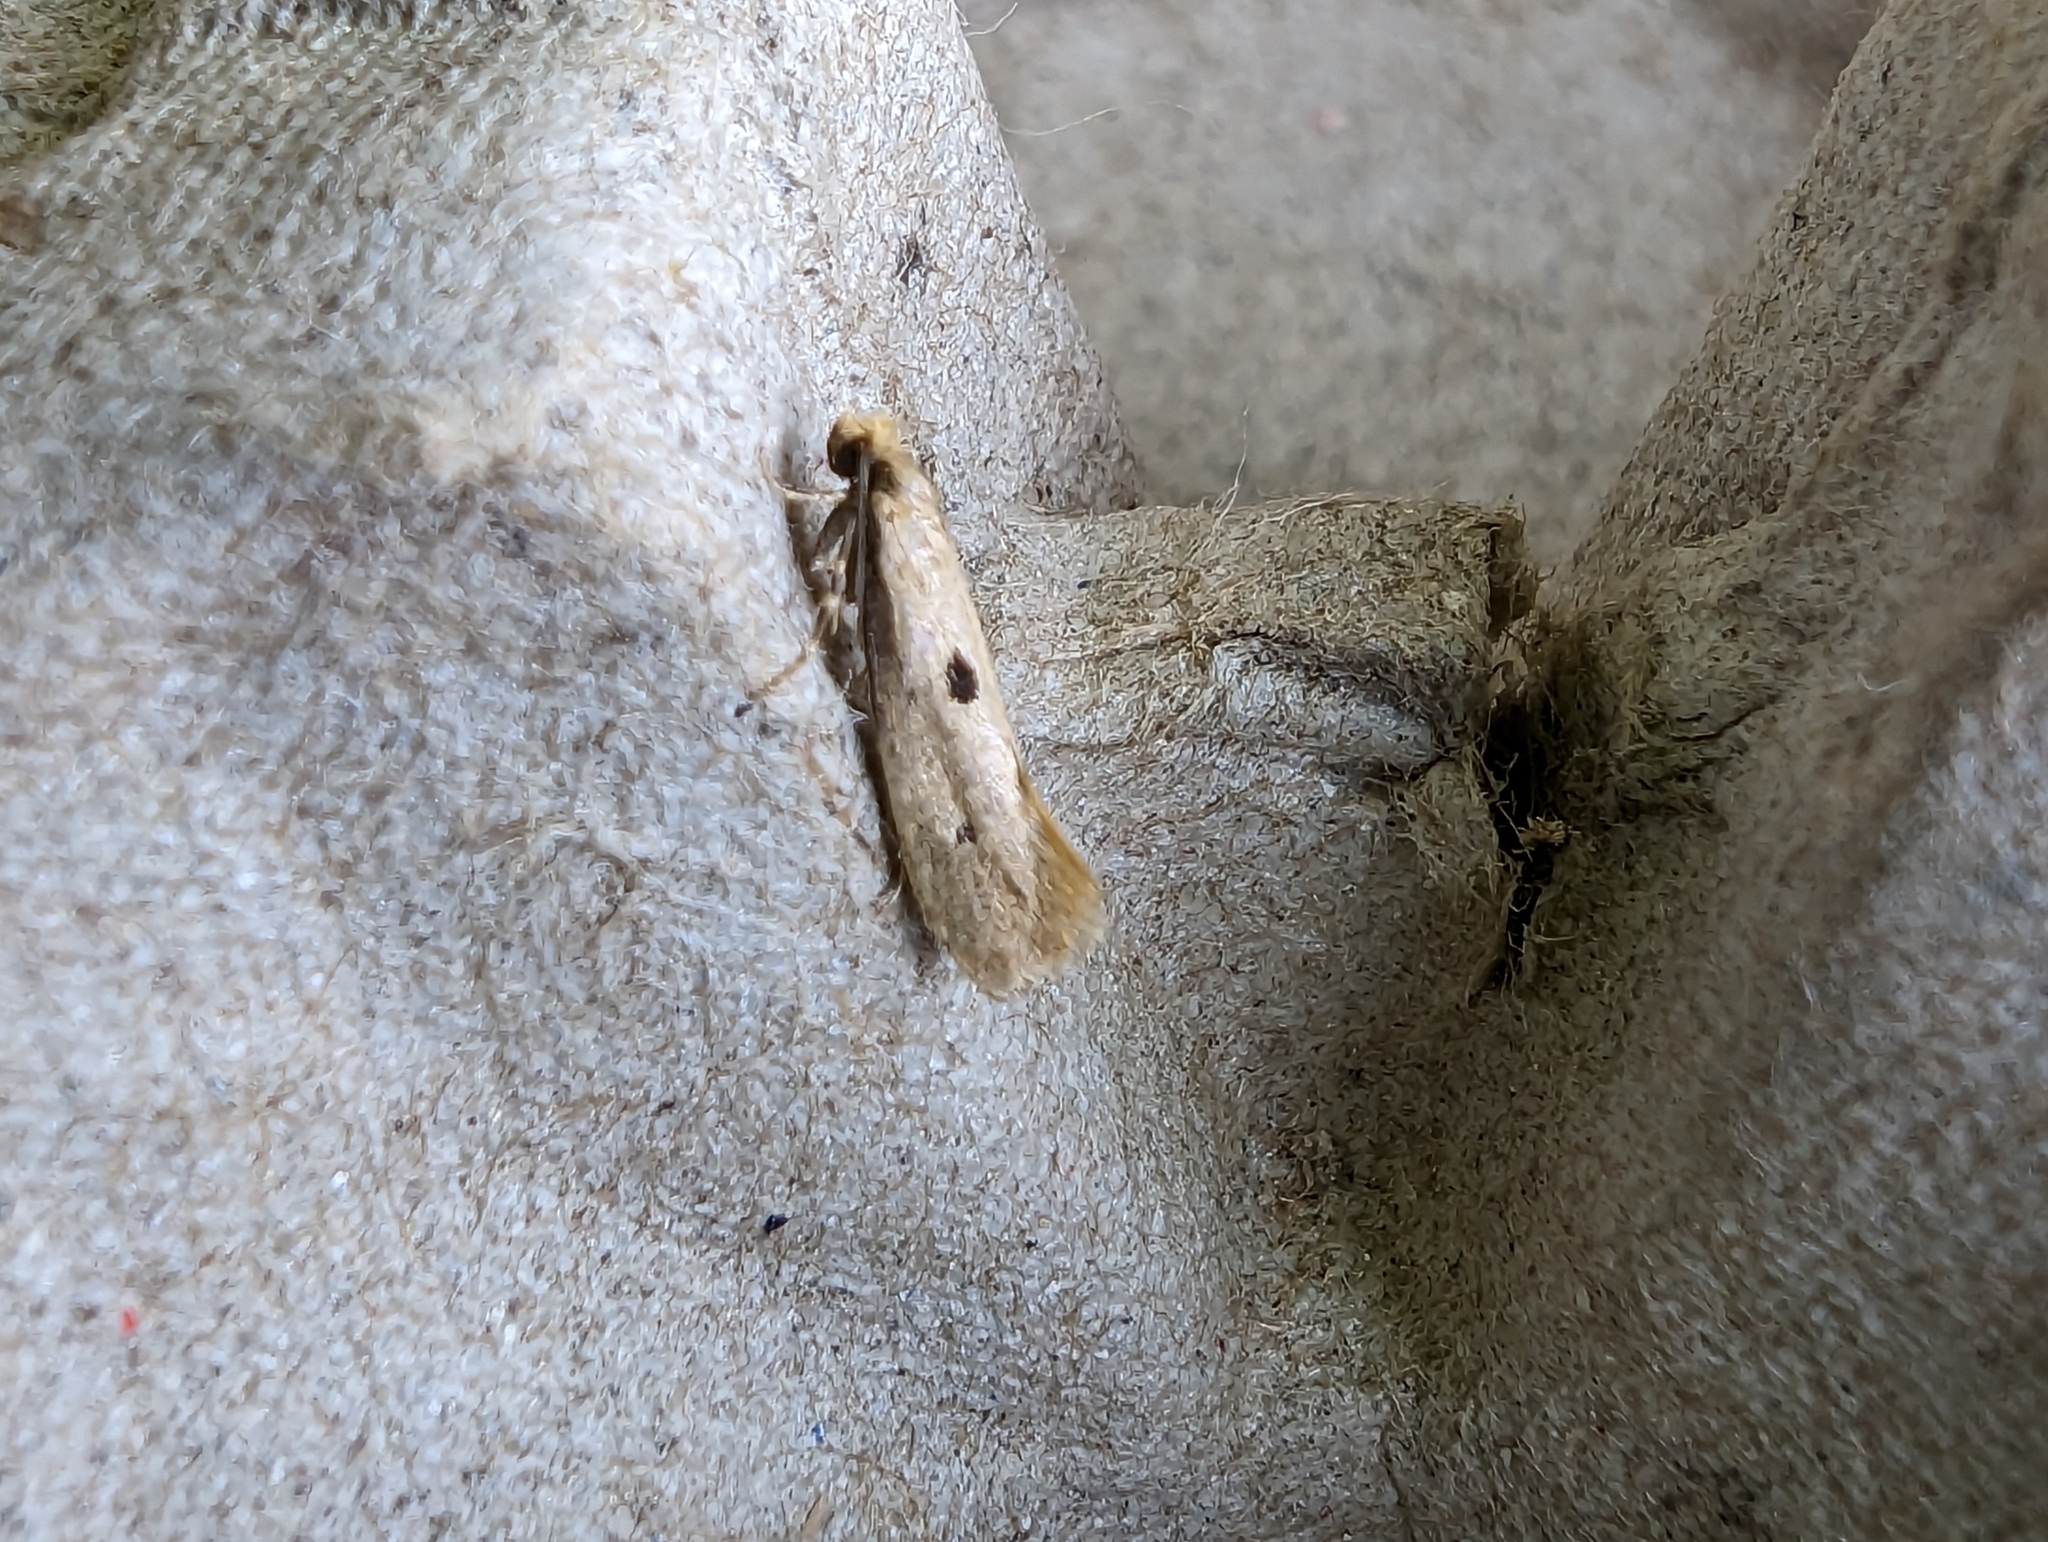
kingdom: Animalia
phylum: Arthropoda
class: Insecta
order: Lepidoptera
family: Tineidae
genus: Tinea
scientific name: Tinea trinotella
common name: Bird's-nest moth
